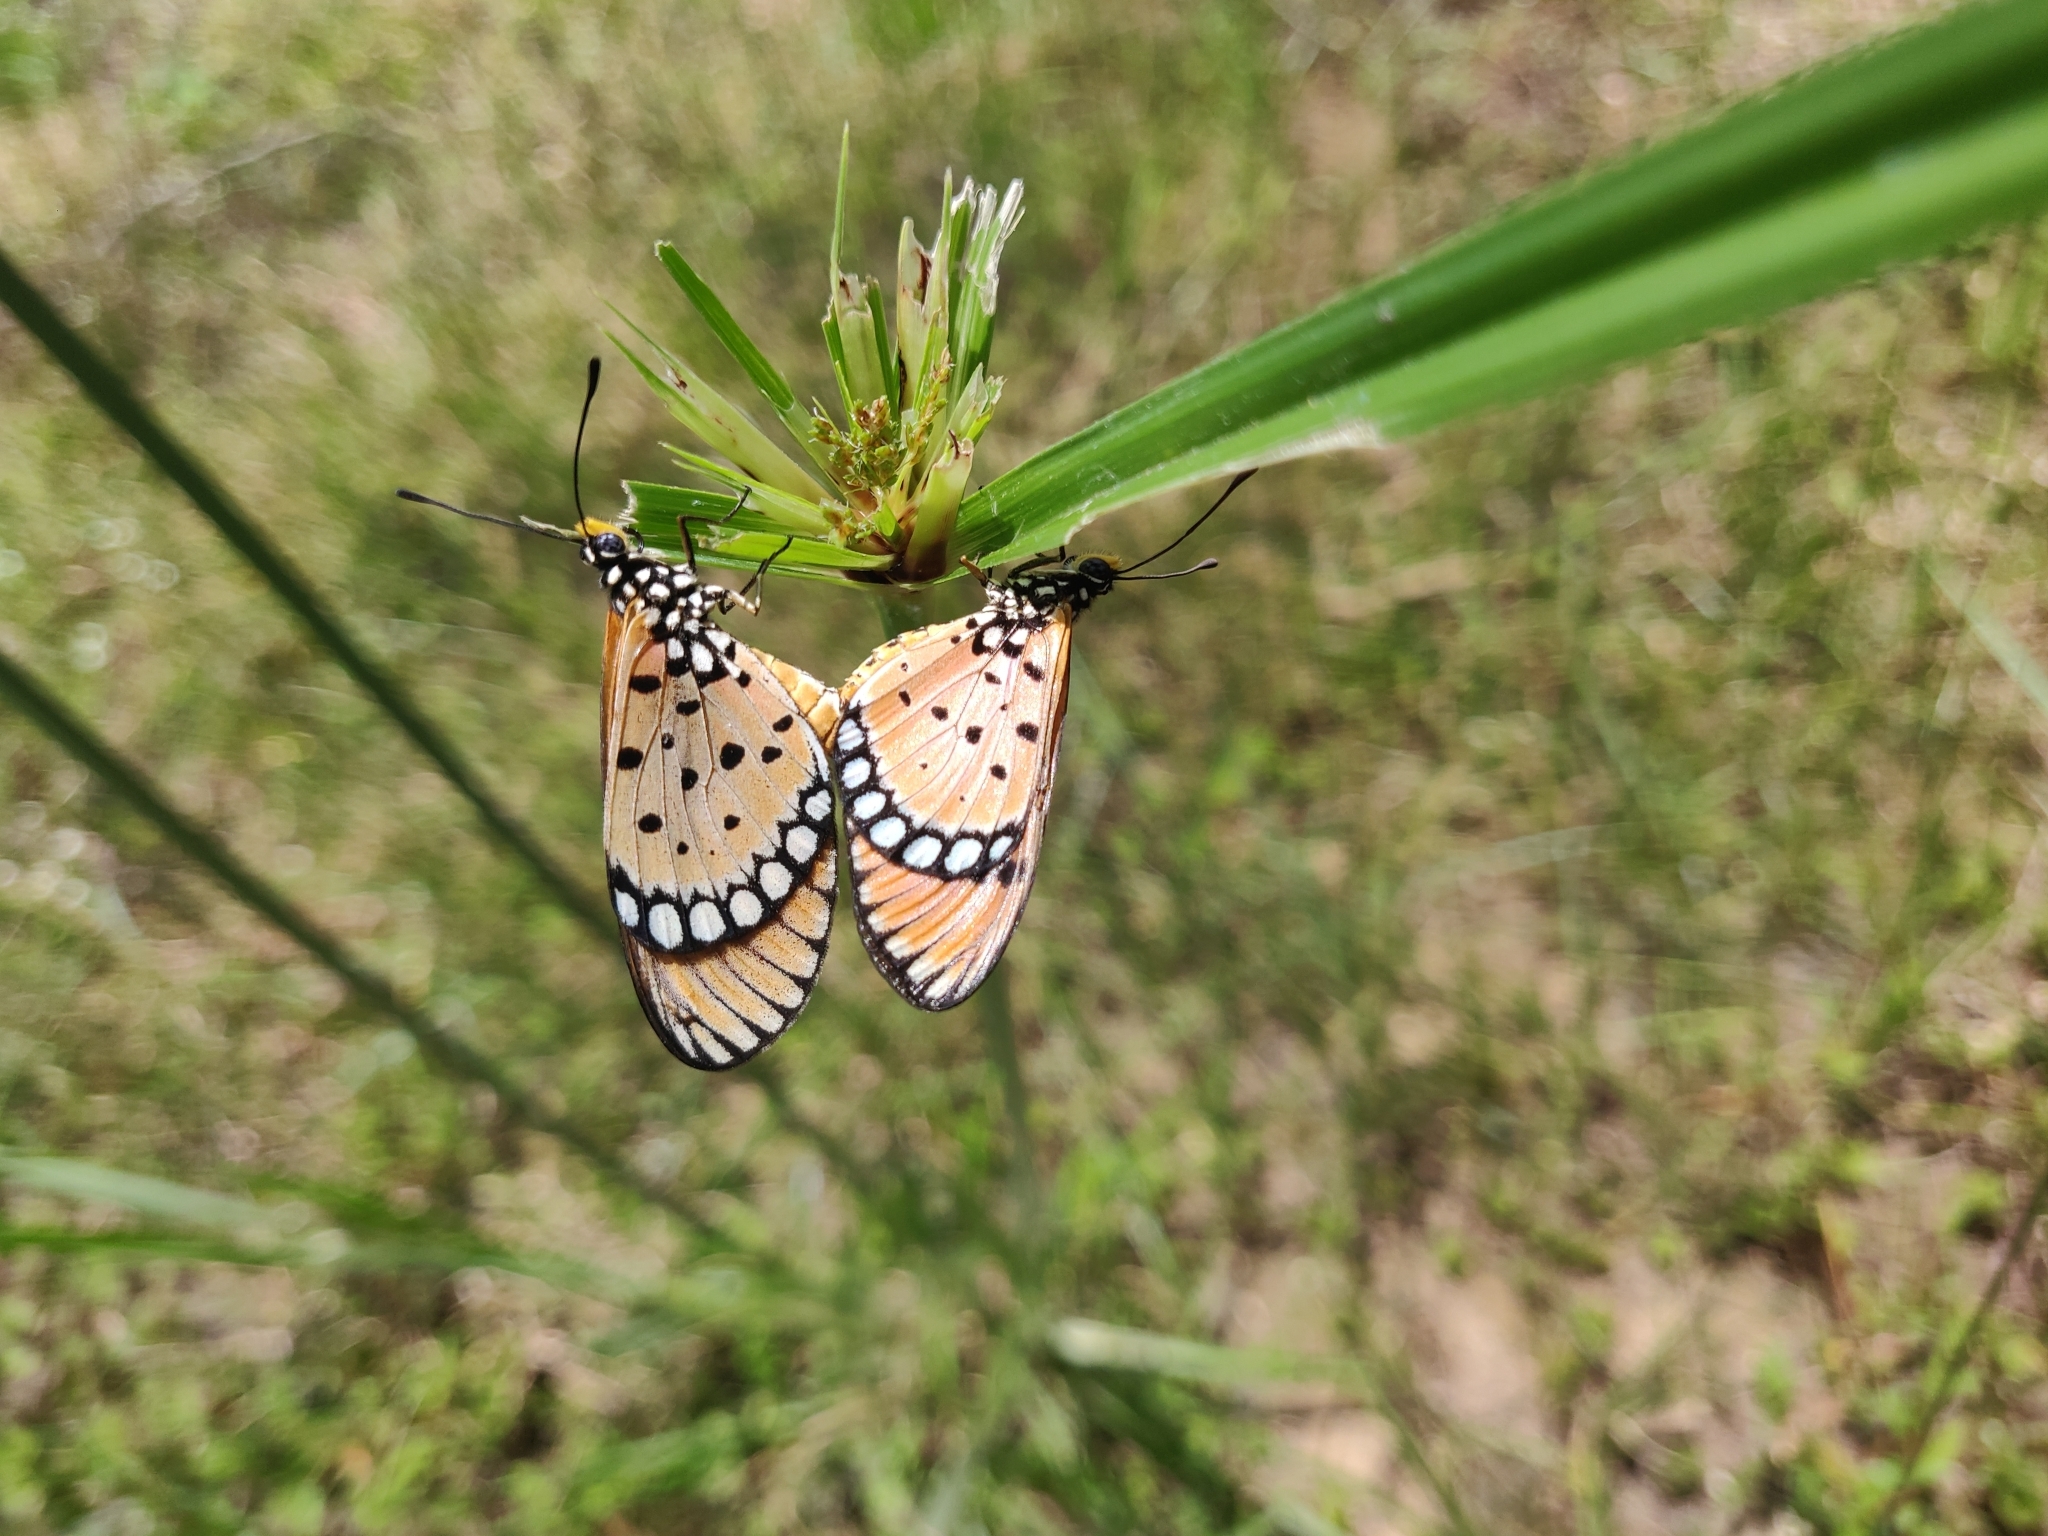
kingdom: Animalia
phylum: Arthropoda
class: Insecta
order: Lepidoptera
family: Nymphalidae
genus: Acraea
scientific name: Acraea terpsicore
